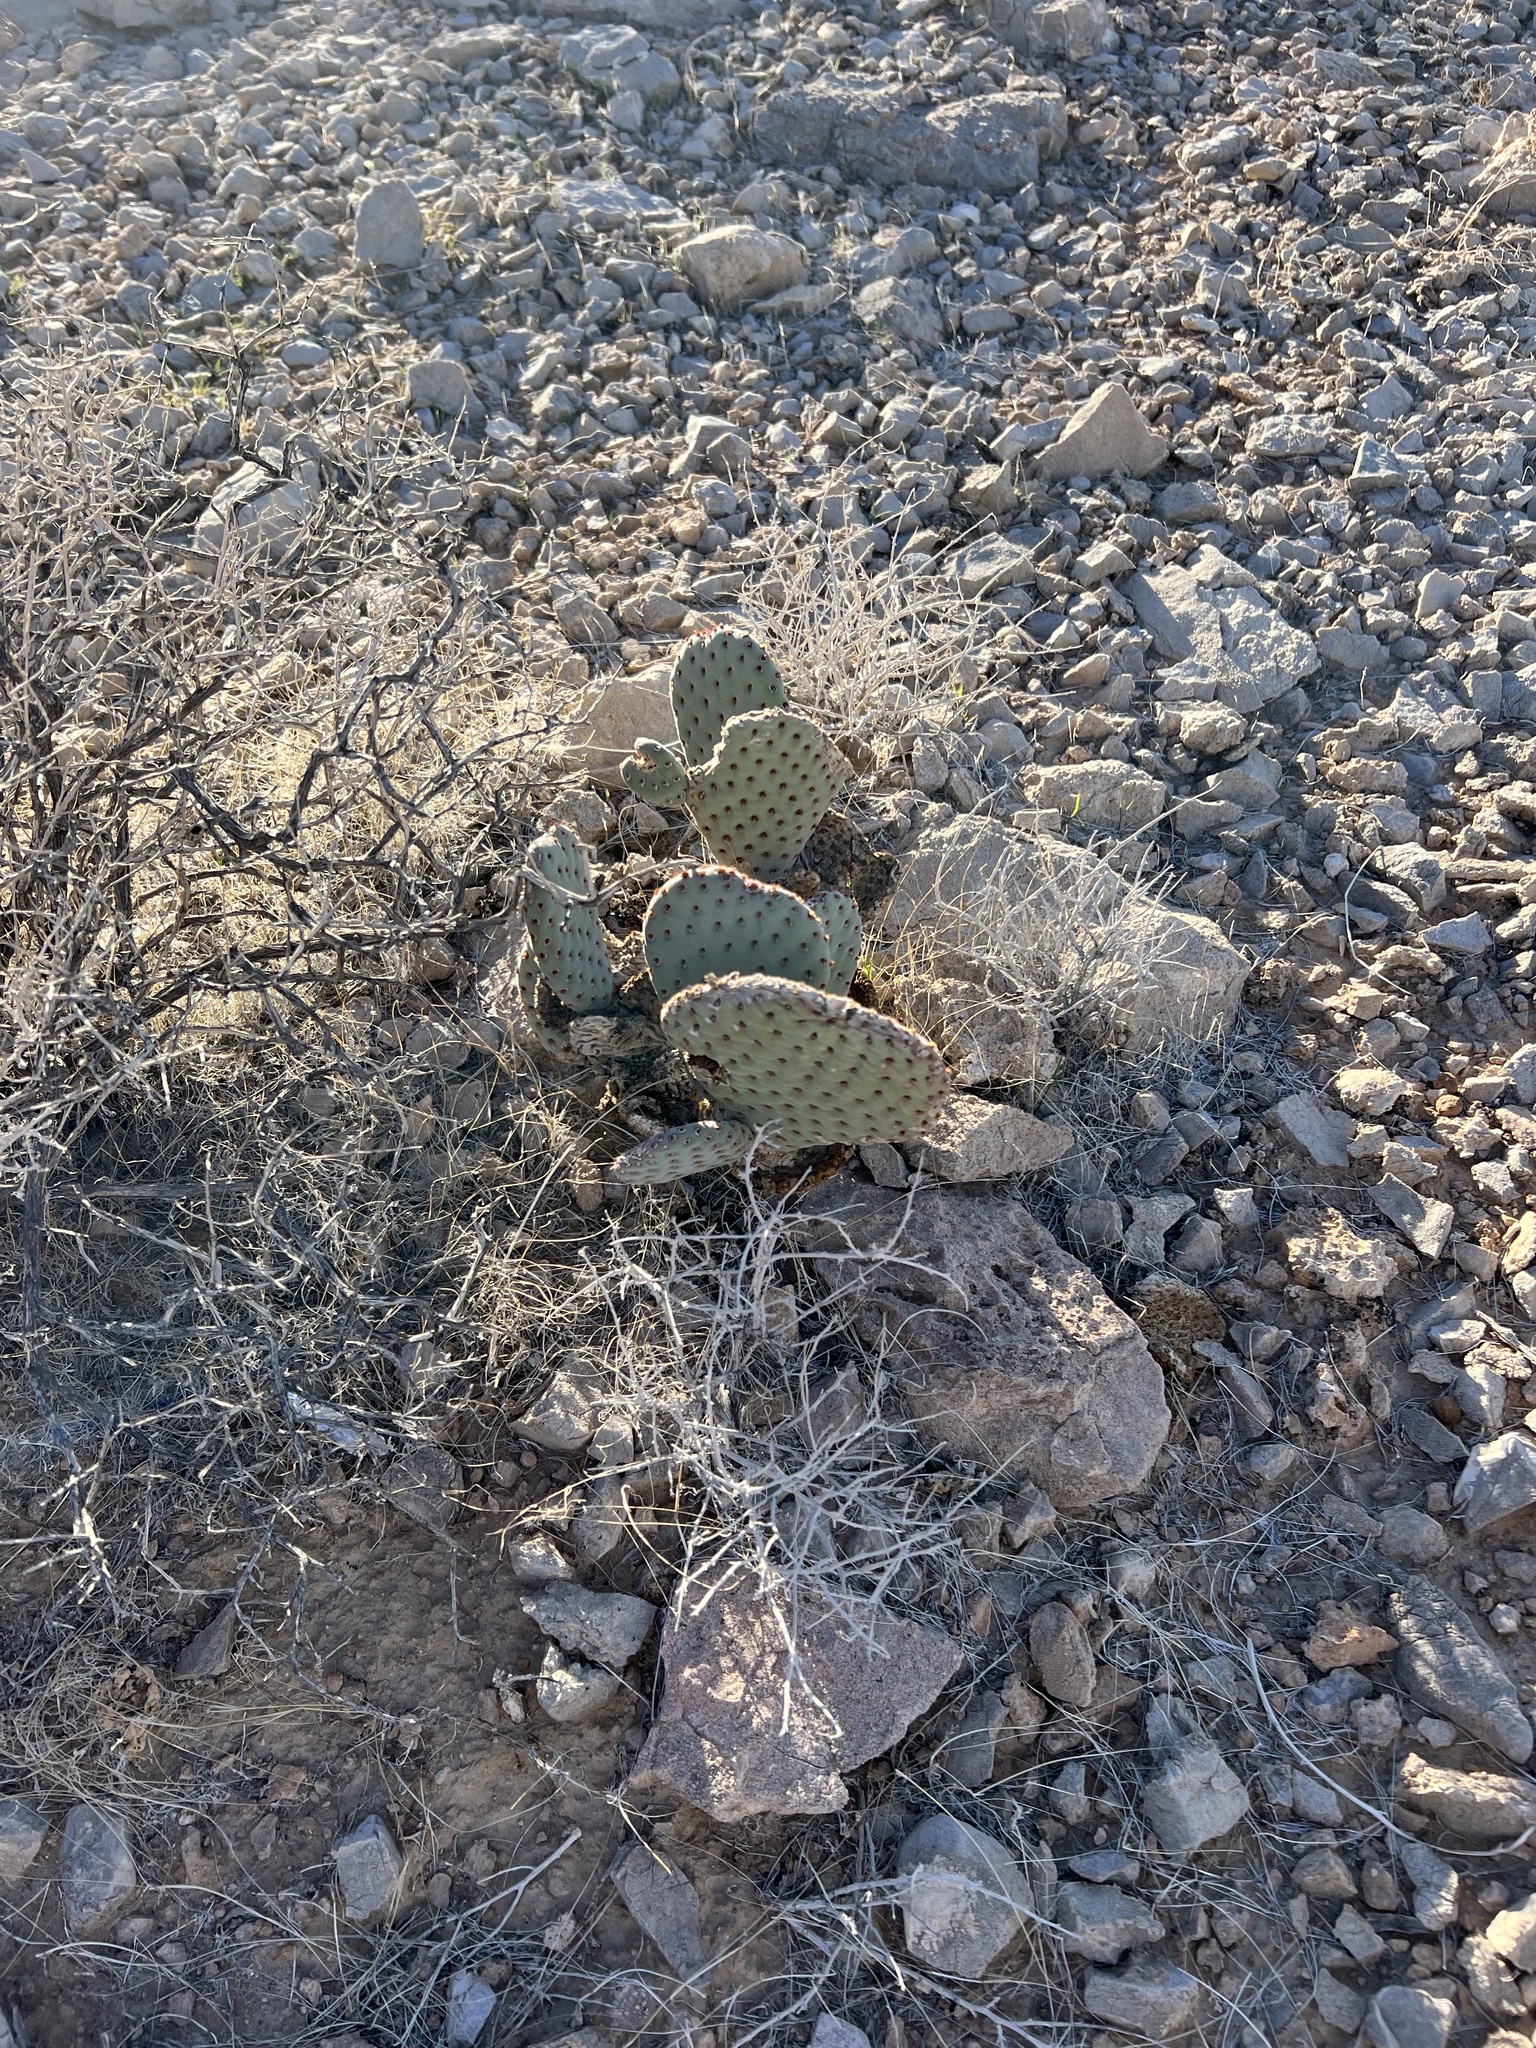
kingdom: Plantae
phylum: Tracheophyta
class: Magnoliopsida
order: Caryophyllales
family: Cactaceae
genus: Opuntia
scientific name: Opuntia basilaris
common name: Beavertail prickly-pear
